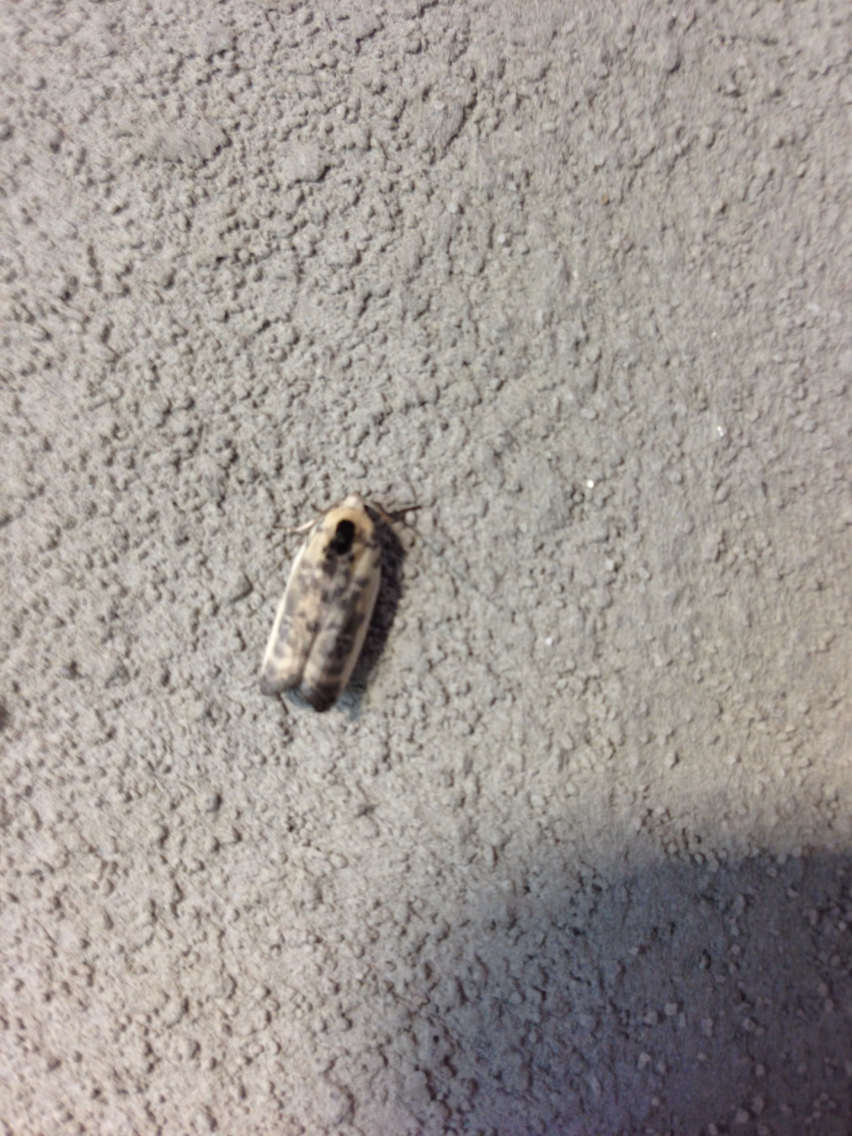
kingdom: Animalia
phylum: Arthropoda
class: Insecta
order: Lepidoptera
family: Depressariidae
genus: Antaeotricha
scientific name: Antaeotricha leucillana
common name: Pale gray bird-dropping moth
